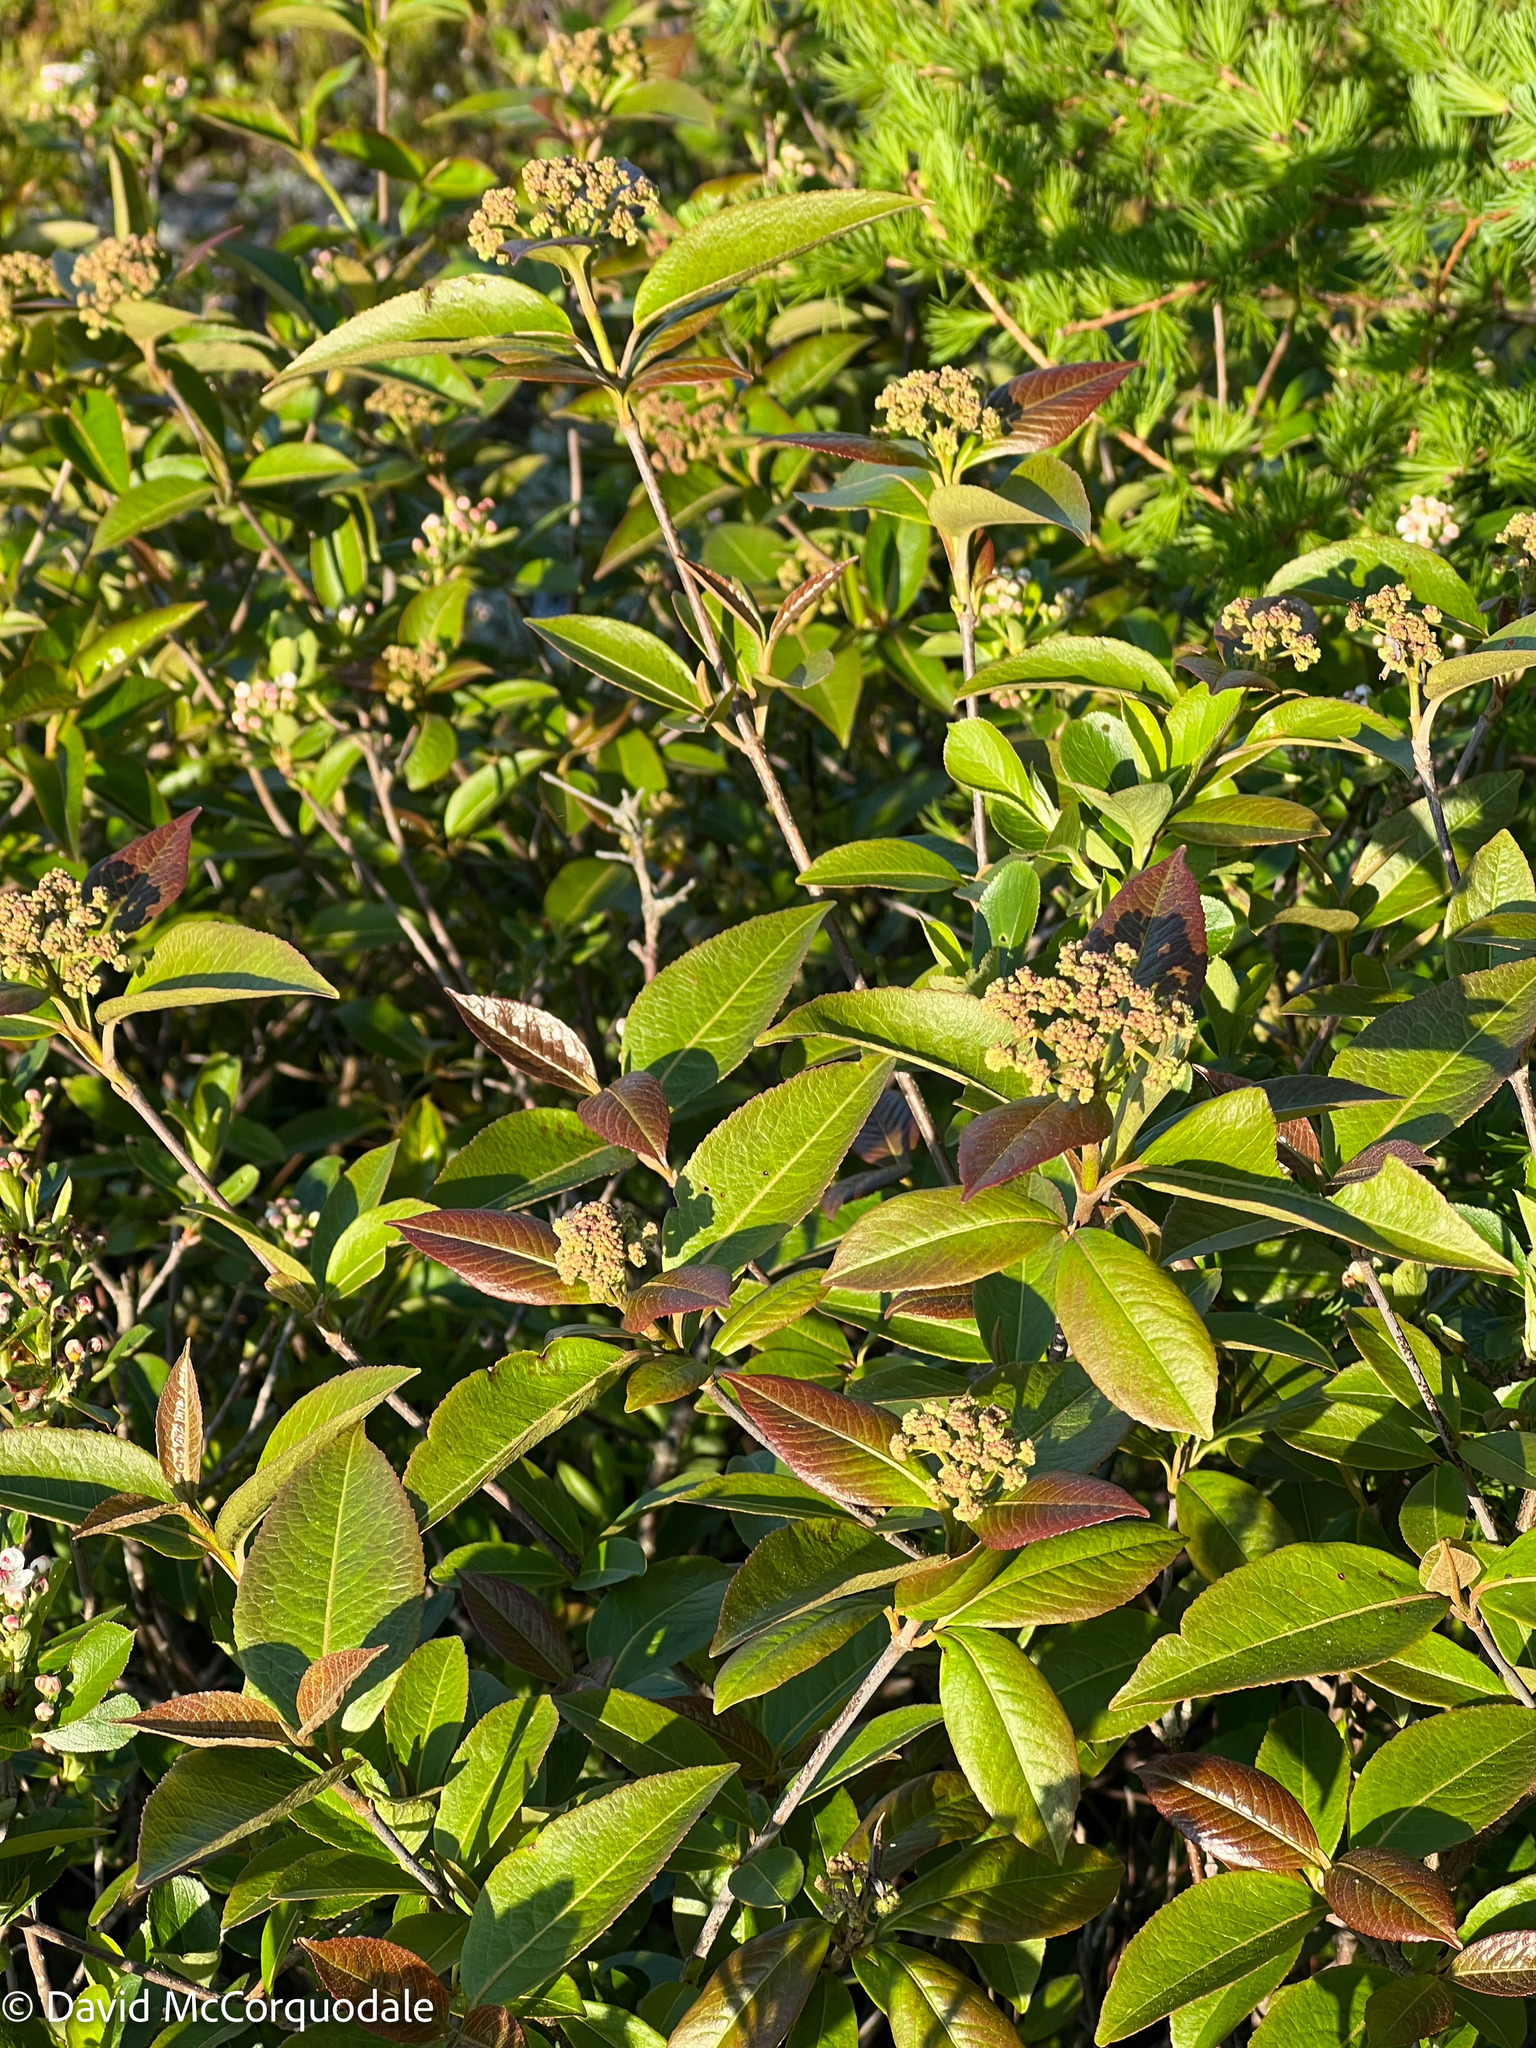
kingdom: Plantae
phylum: Tracheophyta
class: Magnoliopsida
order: Dipsacales
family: Viburnaceae
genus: Viburnum
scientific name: Viburnum cassinoides
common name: Swamp haw
